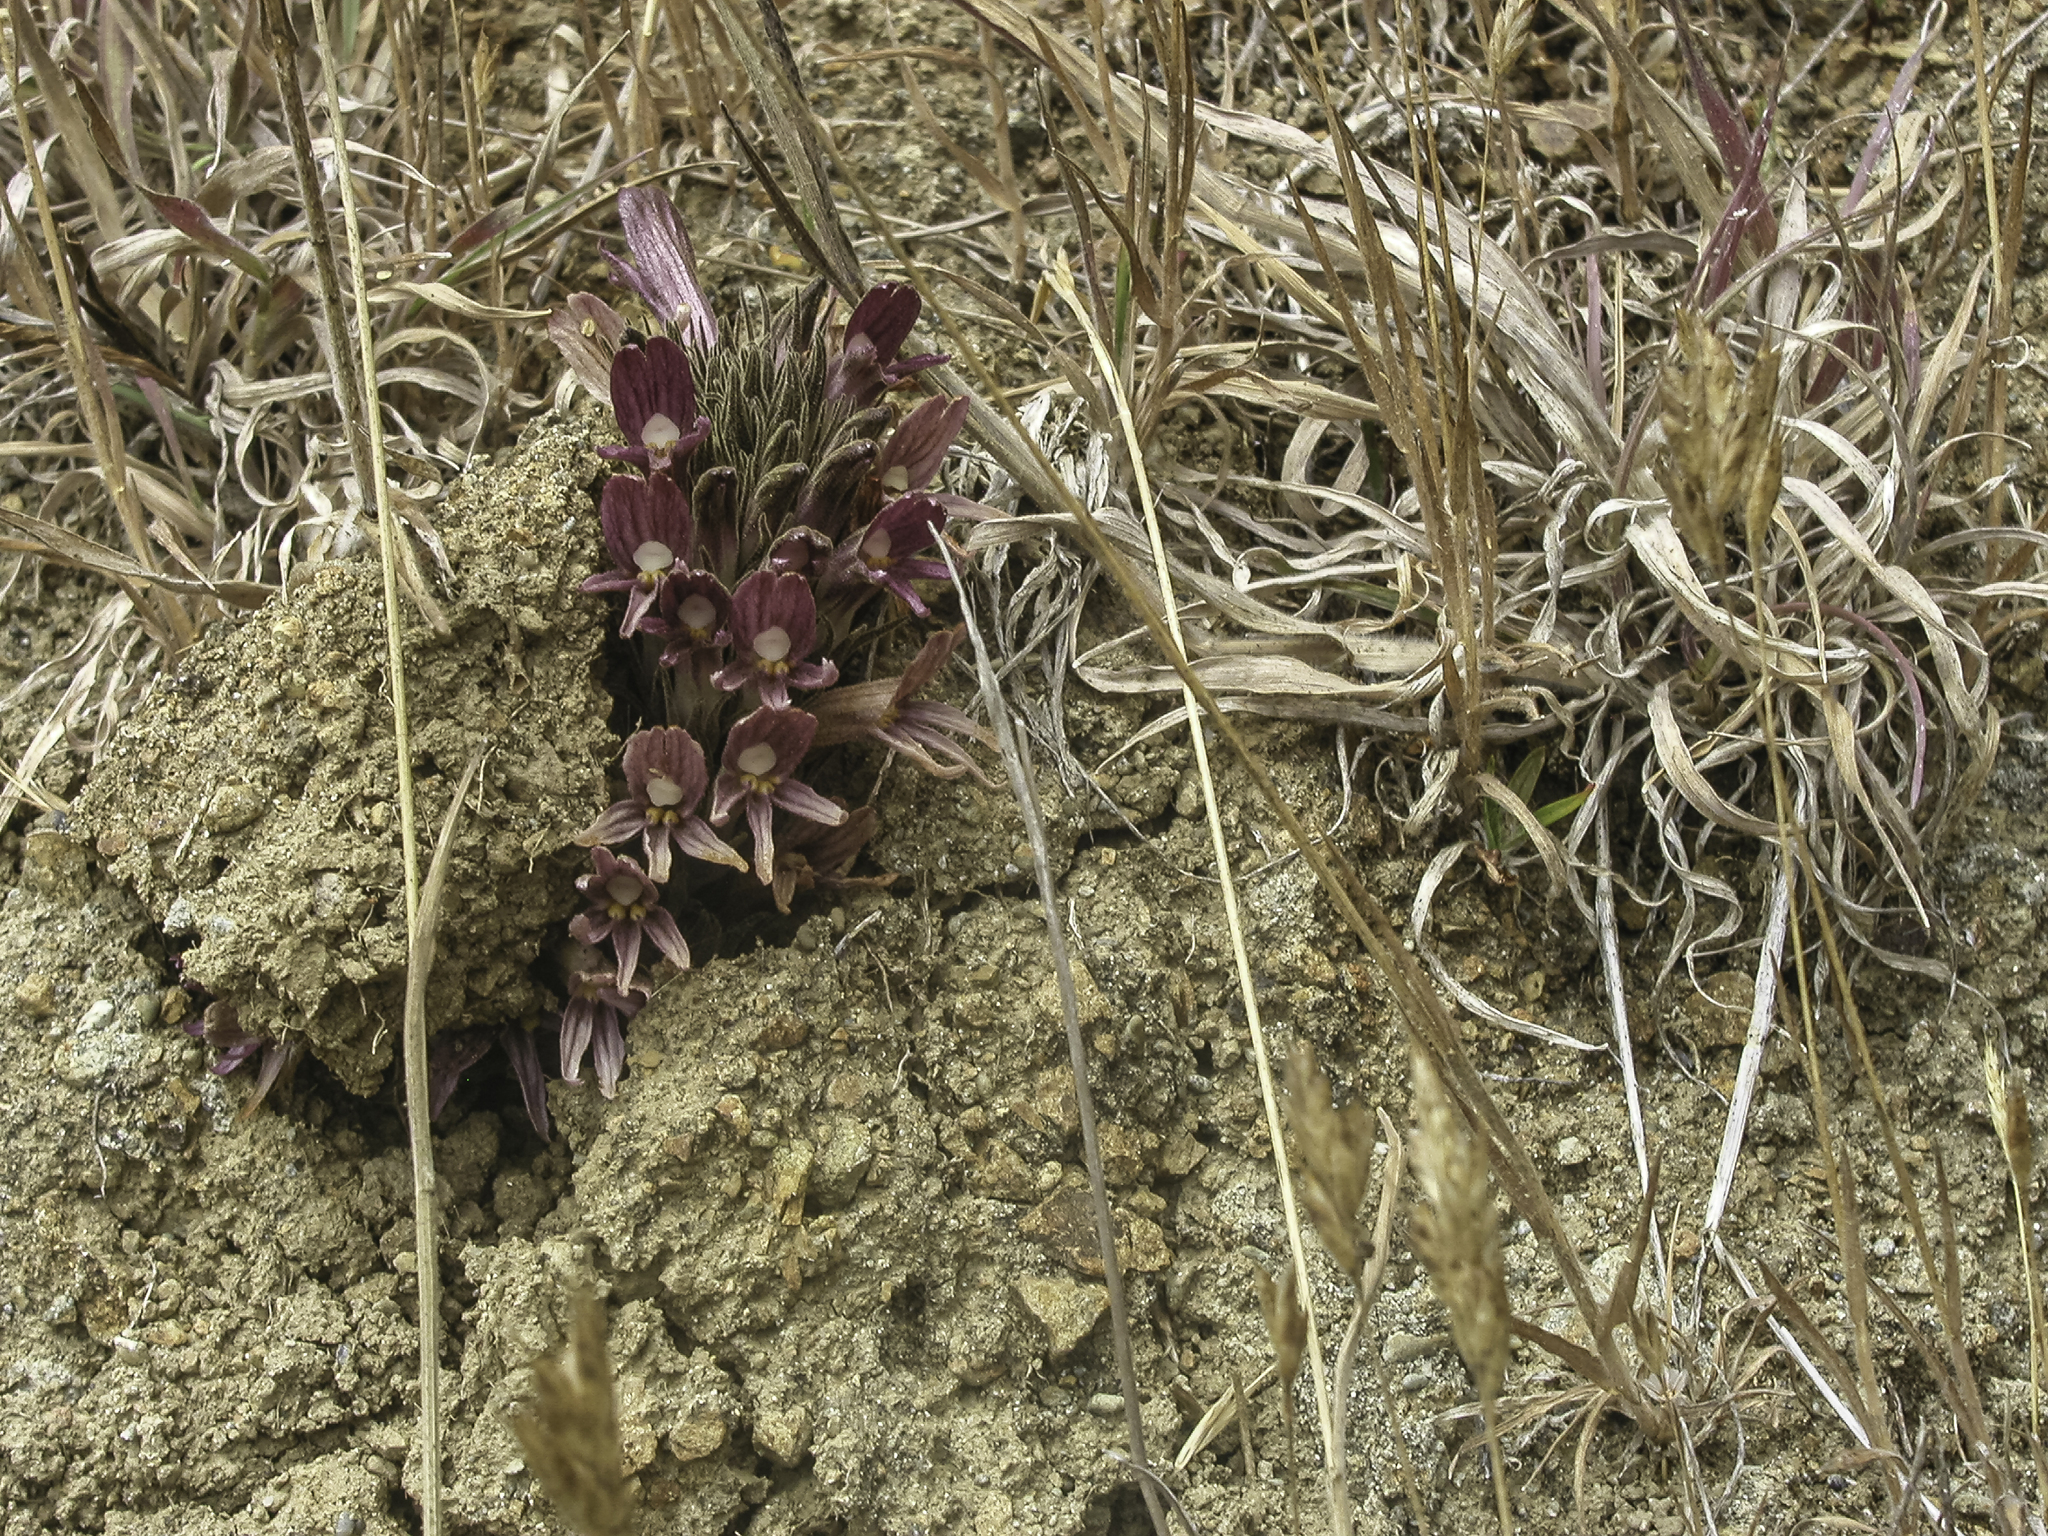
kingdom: Plantae
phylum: Tracheophyta
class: Magnoliopsida
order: Lamiales
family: Orobanchaceae
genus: Aphyllon
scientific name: Aphyllon californicum
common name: California broomrape
